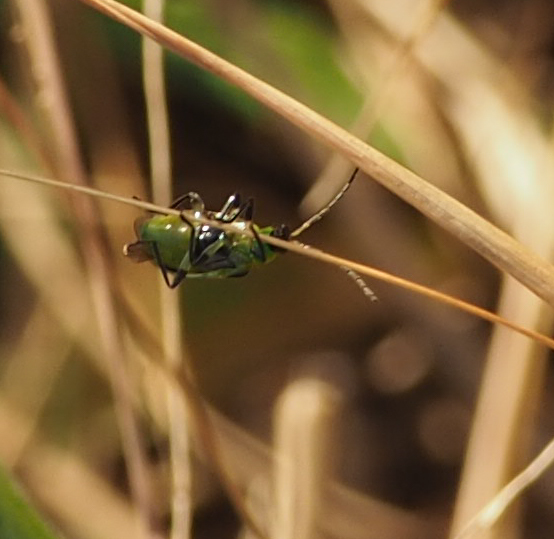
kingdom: Animalia
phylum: Arthropoda
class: Insecta
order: Coleoptera
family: Chrysomelidae
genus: Diabrotica
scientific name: Diabrotica undecimpunctata
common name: Spotted cucumber beetle
